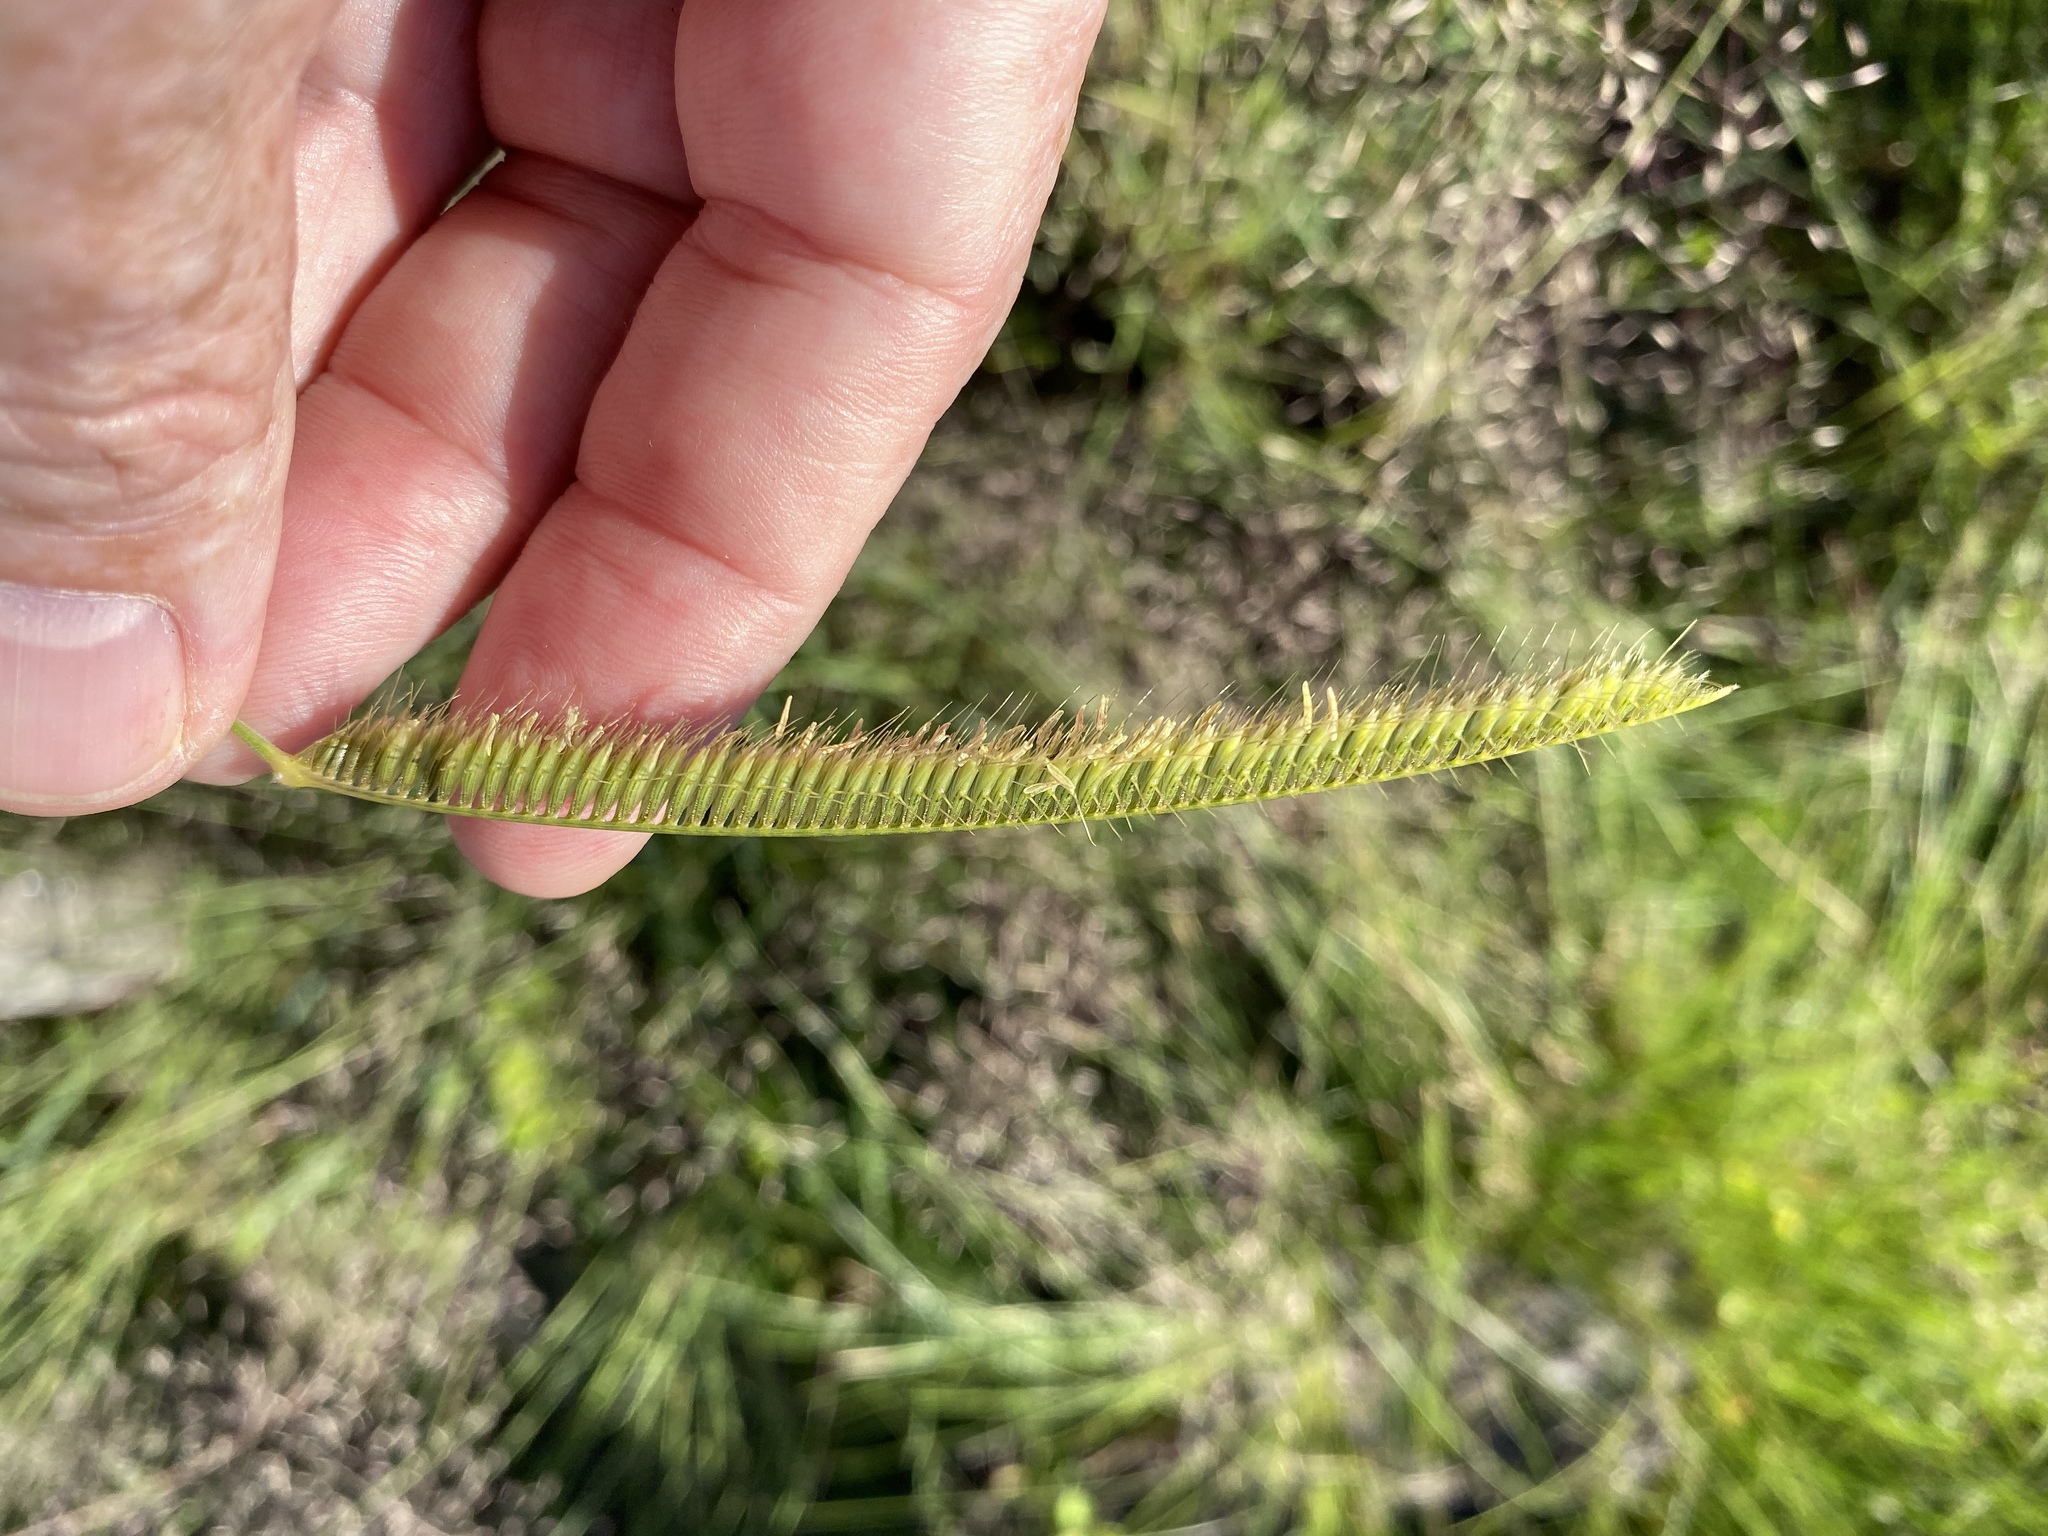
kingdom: Plantae
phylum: Tracheophyta
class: Liliopsida
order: Poales
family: Poaceae
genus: Ctenium
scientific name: Ctenium aromaticum
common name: Toothache grass
